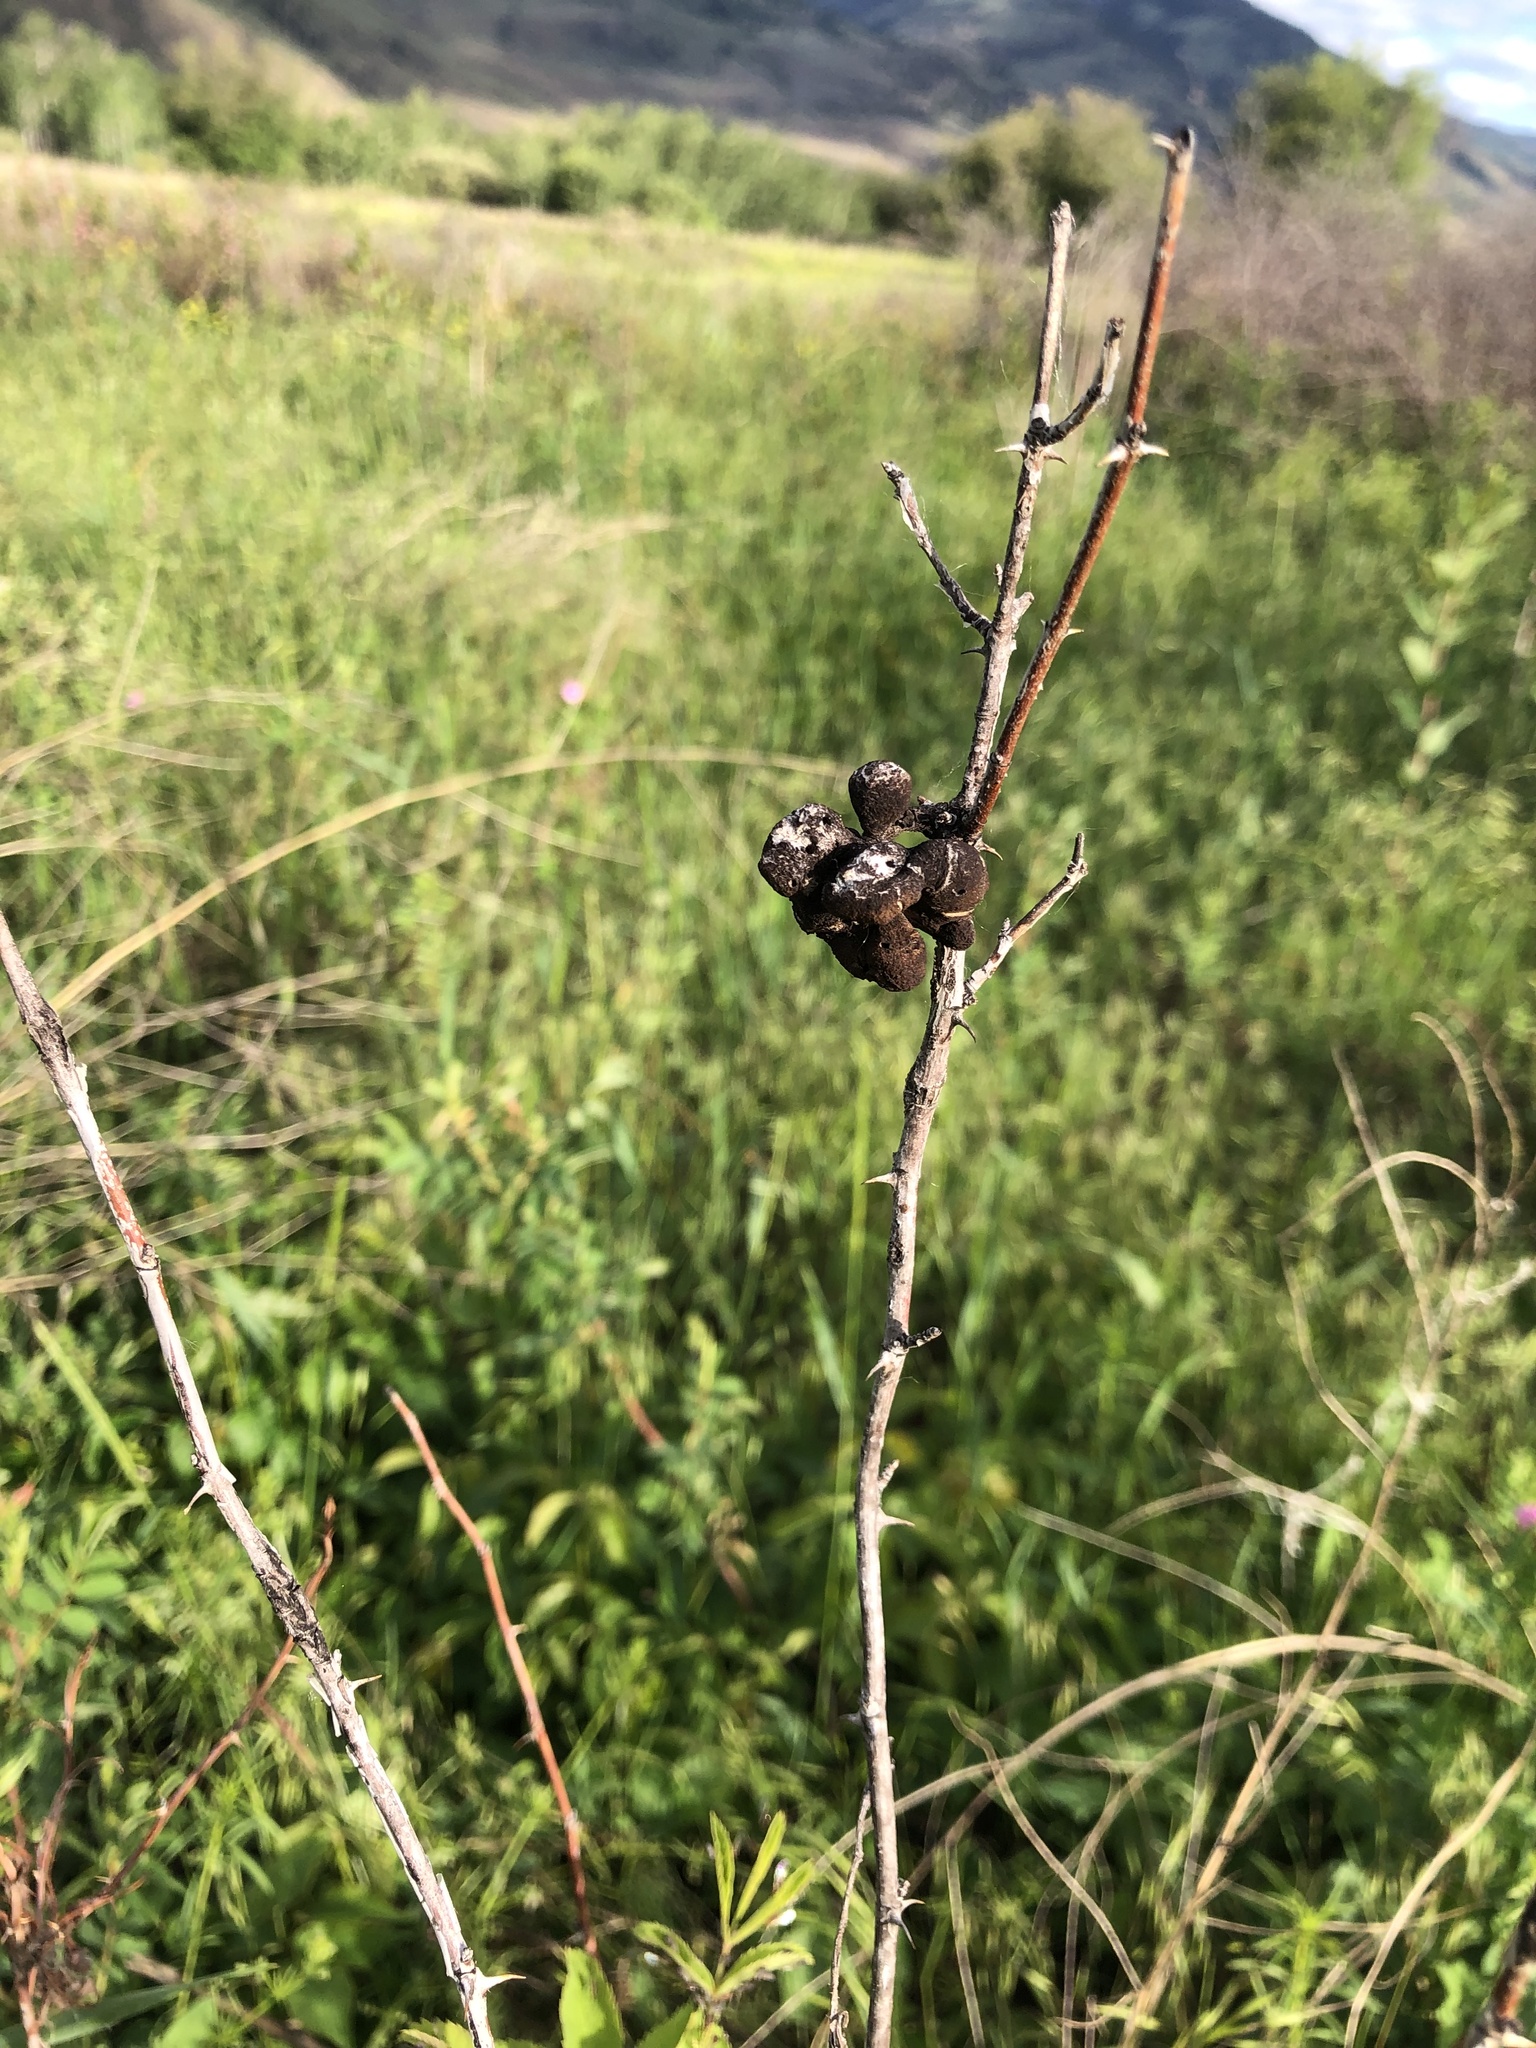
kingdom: Animalia
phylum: Arthropoda
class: Insecta
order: Hymenoptera
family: Cynipidae
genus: Diplolepis
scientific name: Diplolepis variabilis
